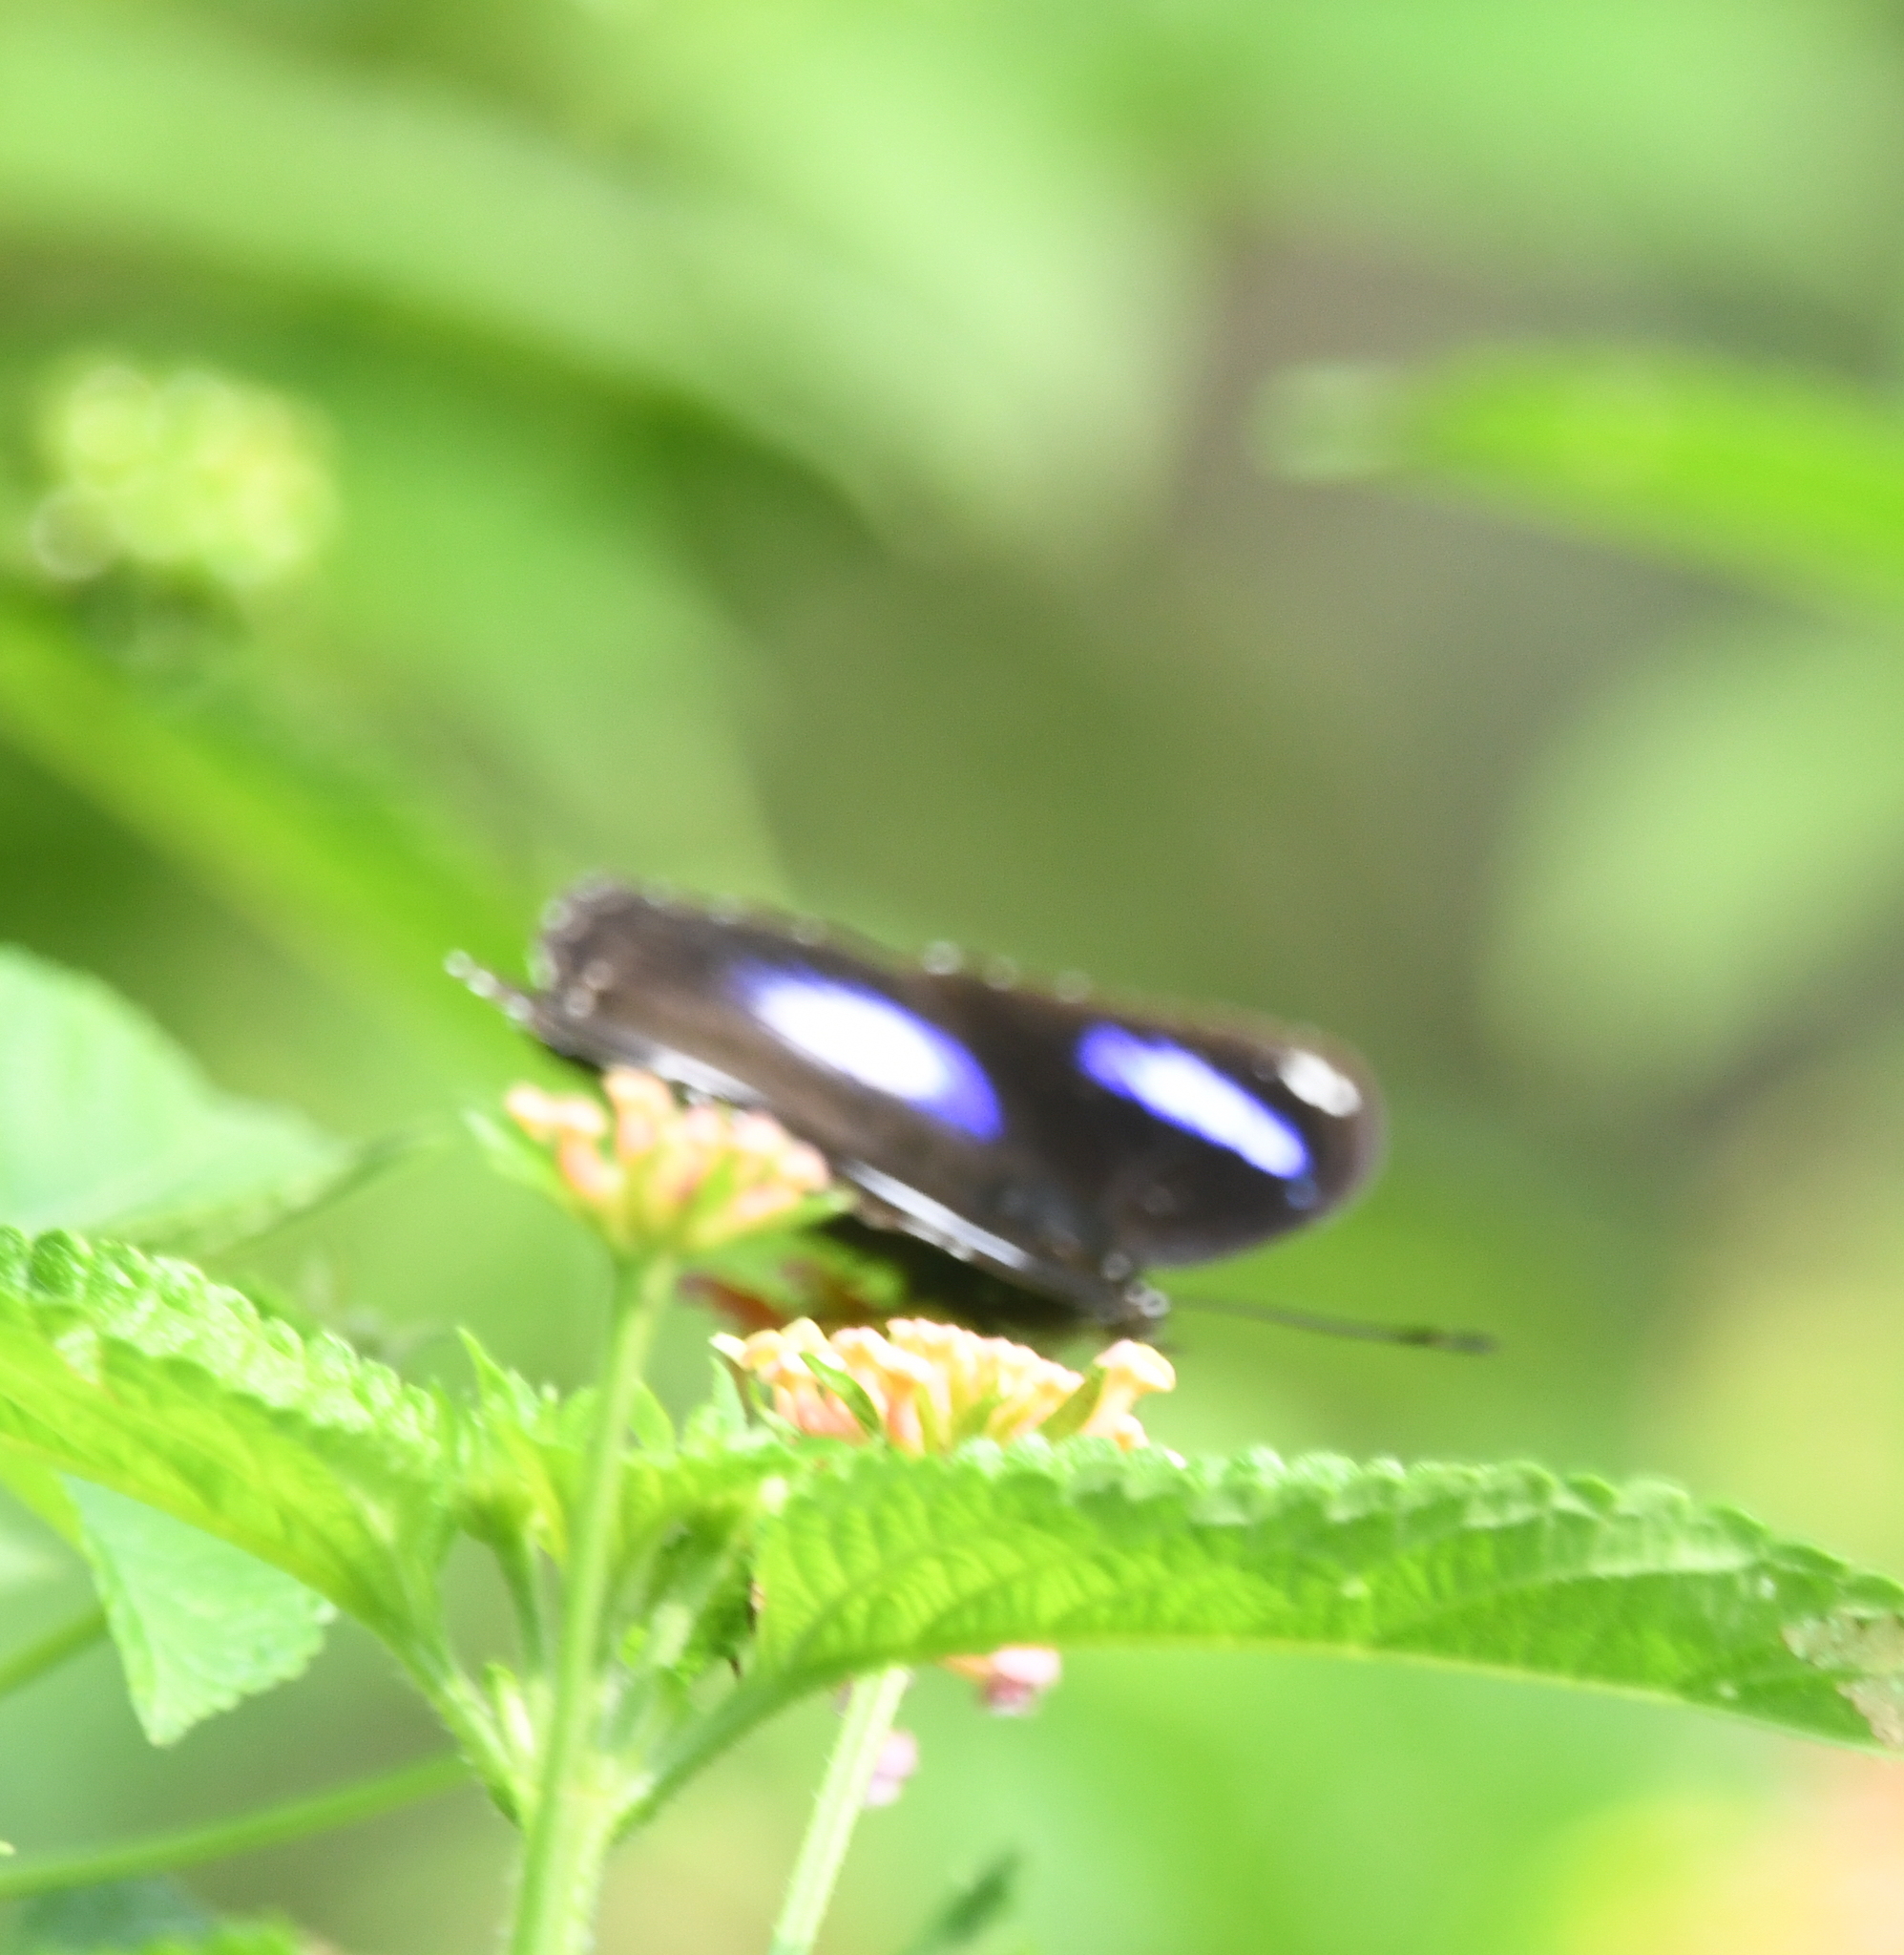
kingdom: Animalia
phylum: Arthropoda
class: Insecta
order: Lepidoptera
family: Nymphalidae
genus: Hypolimnas
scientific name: Hypolimnas bolina
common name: Great eggfly
